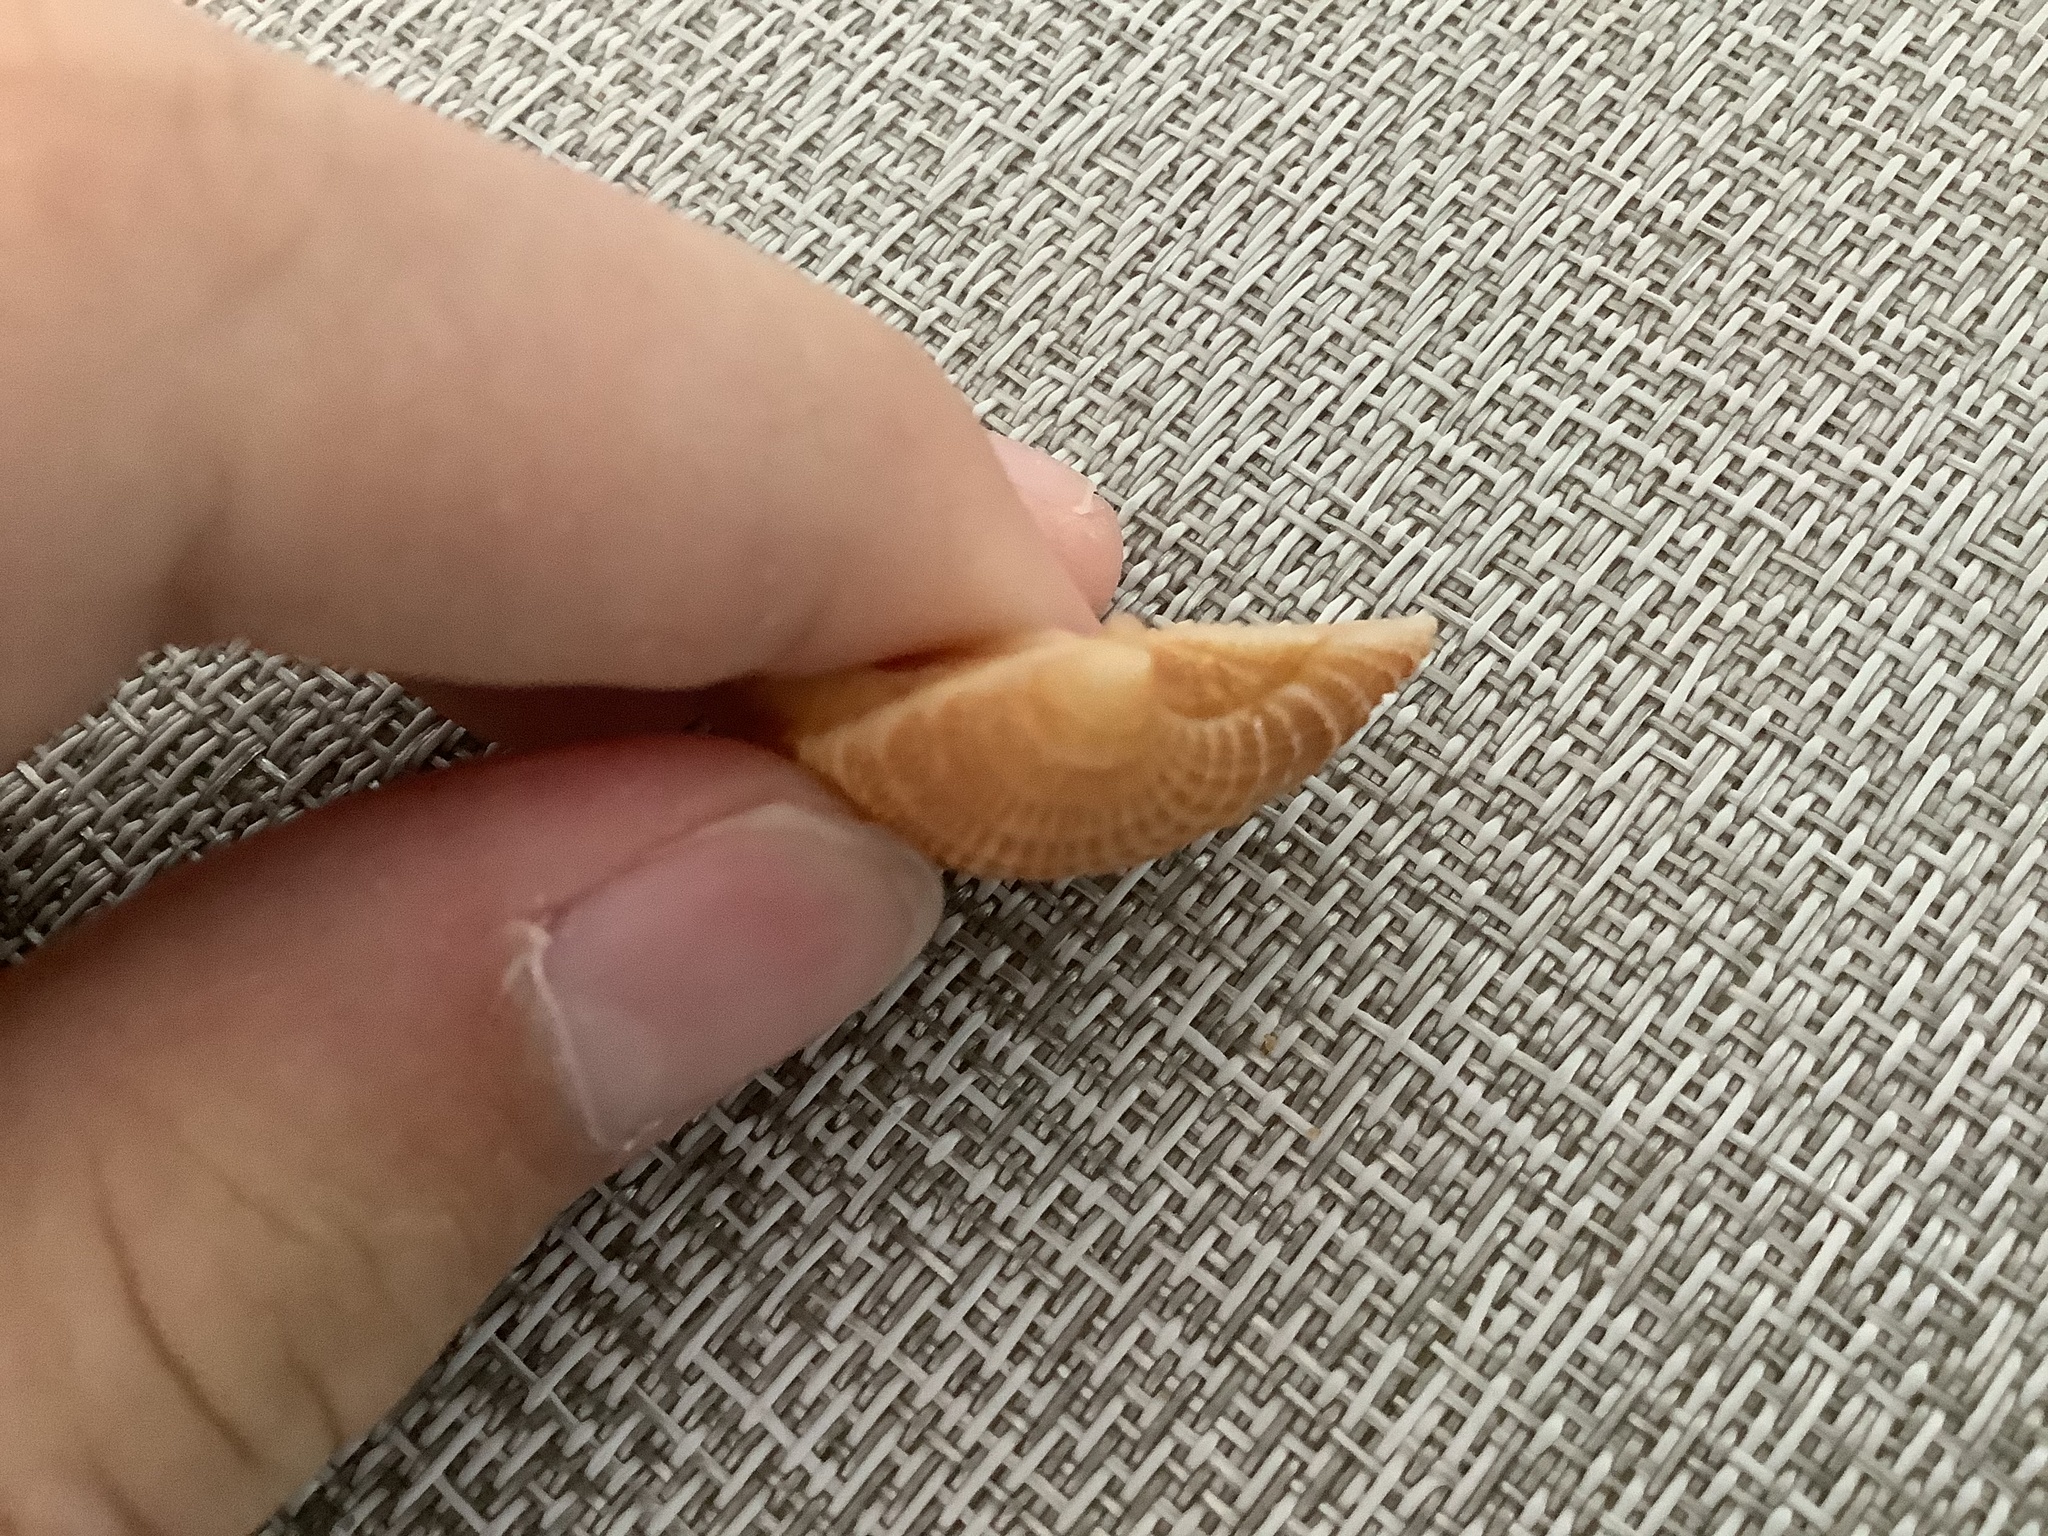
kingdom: Animalia
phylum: Mollusca
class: Bivalvia
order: Venerida
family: Veneridae
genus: Chione
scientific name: Chione elevata
